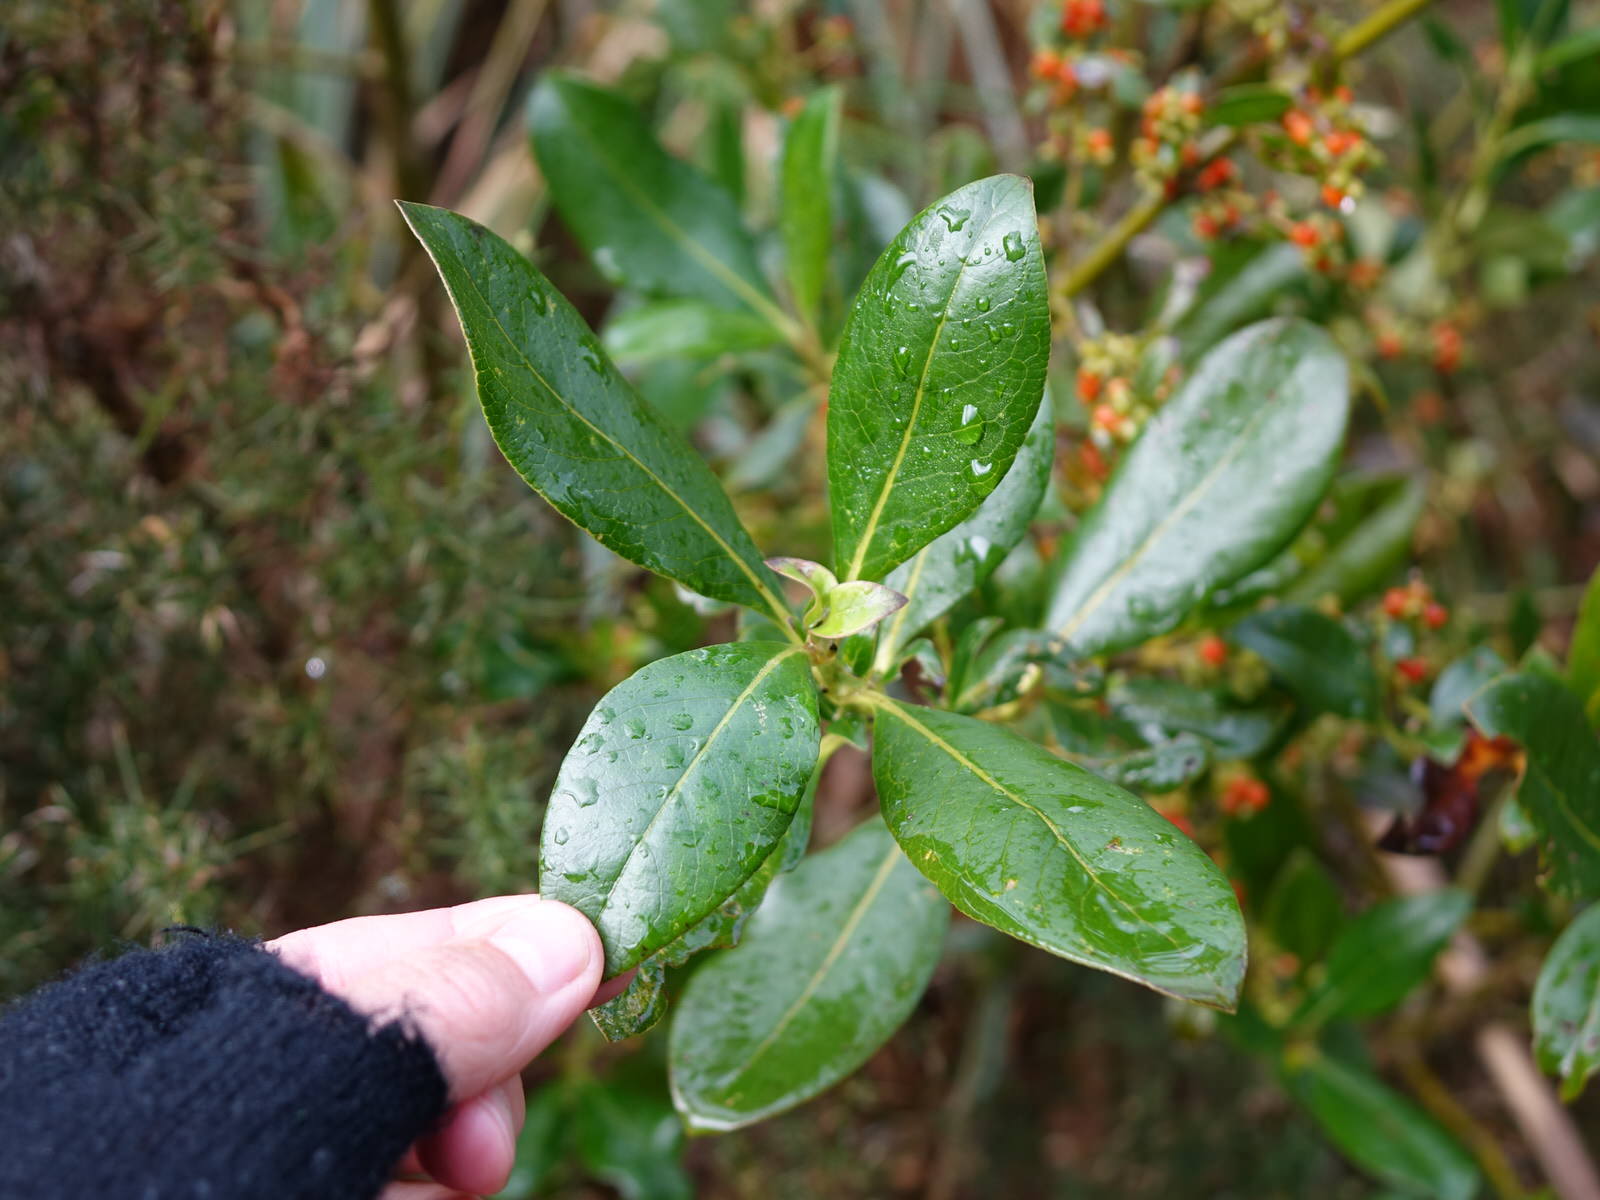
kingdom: Plantae
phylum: Tracheophyta
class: Magnoliopsida
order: Gentianales
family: Rubiaceae
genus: Coprosma
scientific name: Coprosma robusta
